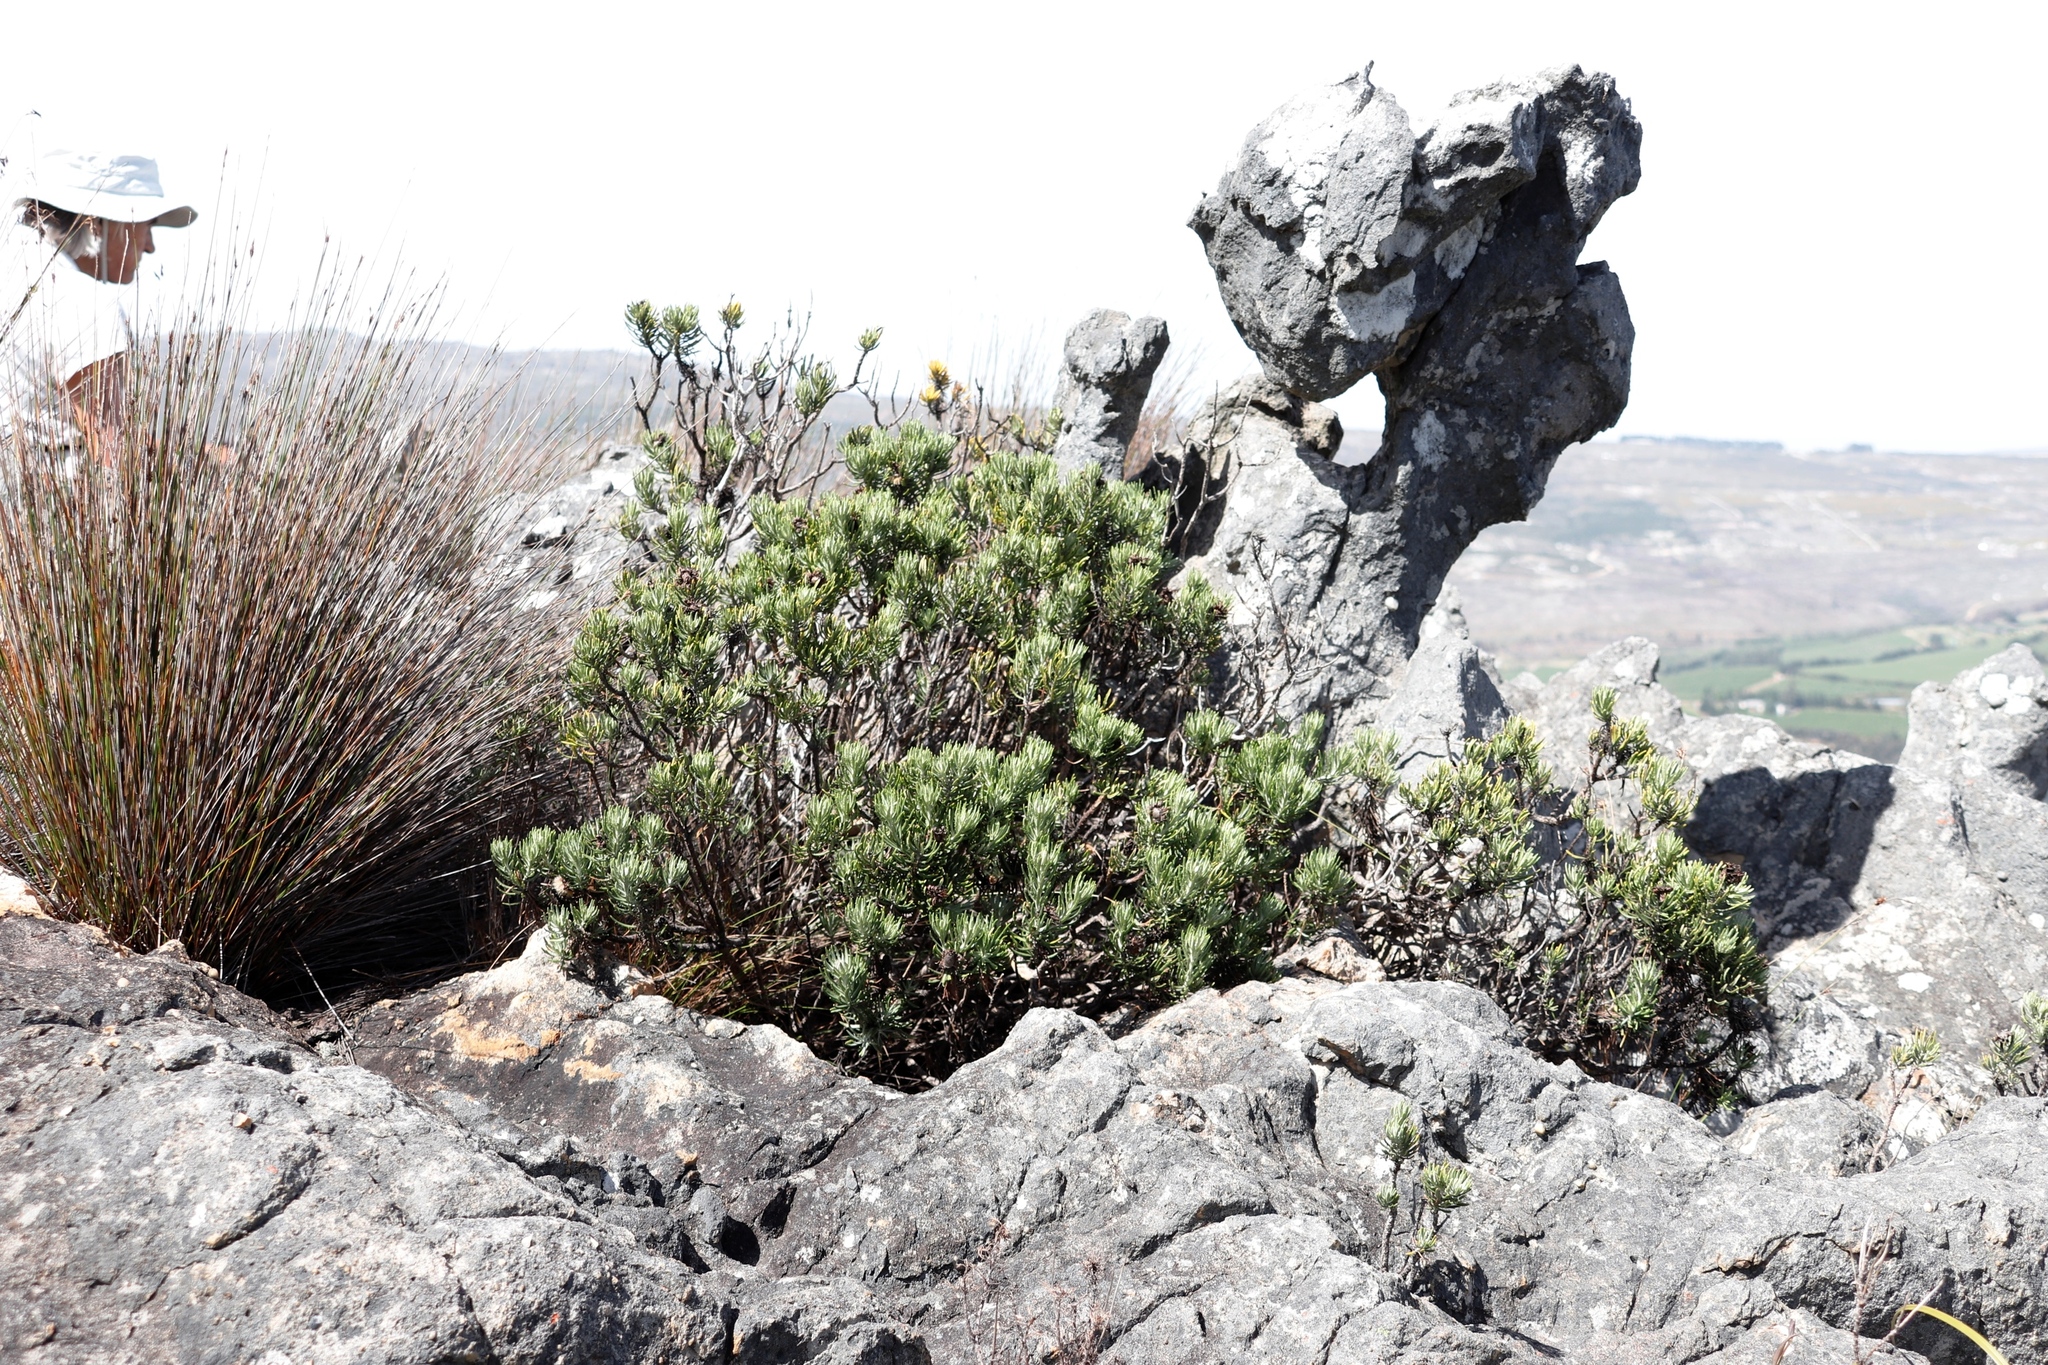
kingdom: Plantae
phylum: Tracheophyta
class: Magnoliopsida
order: Asterales
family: Asteraceae
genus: Heterolepis
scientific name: Heterolepis aliena
